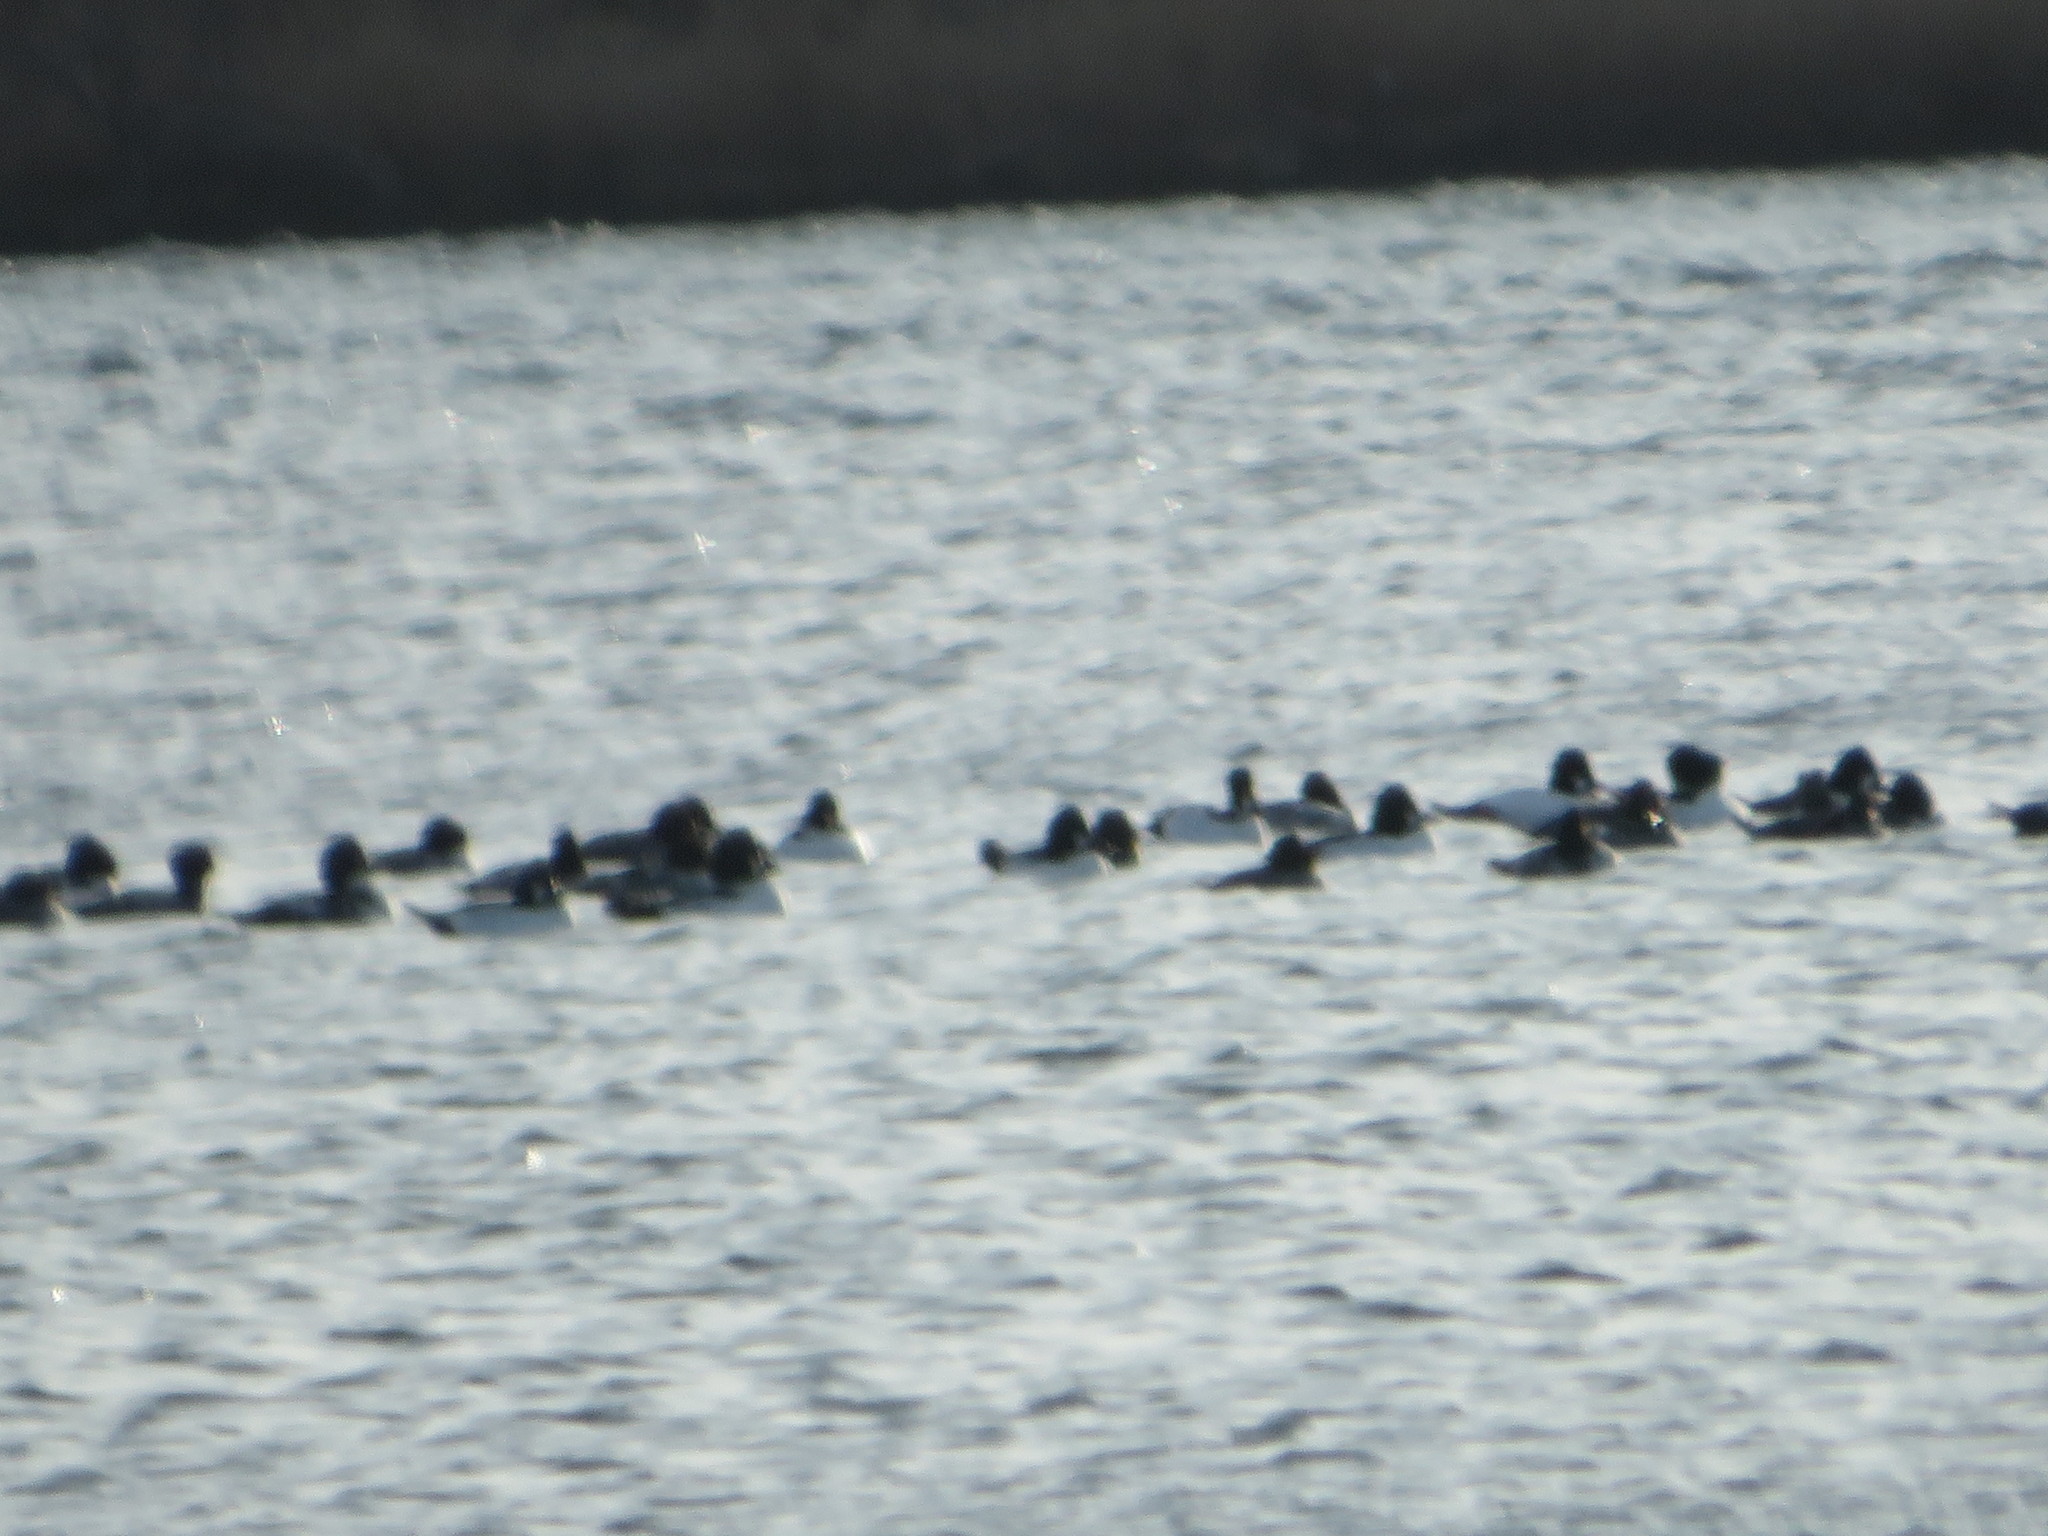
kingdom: Animalia
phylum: Chordata
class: Aves
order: Anseriformes
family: Anatidae
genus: Bucephala
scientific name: Bucephala clangula
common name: Common goldeneye
